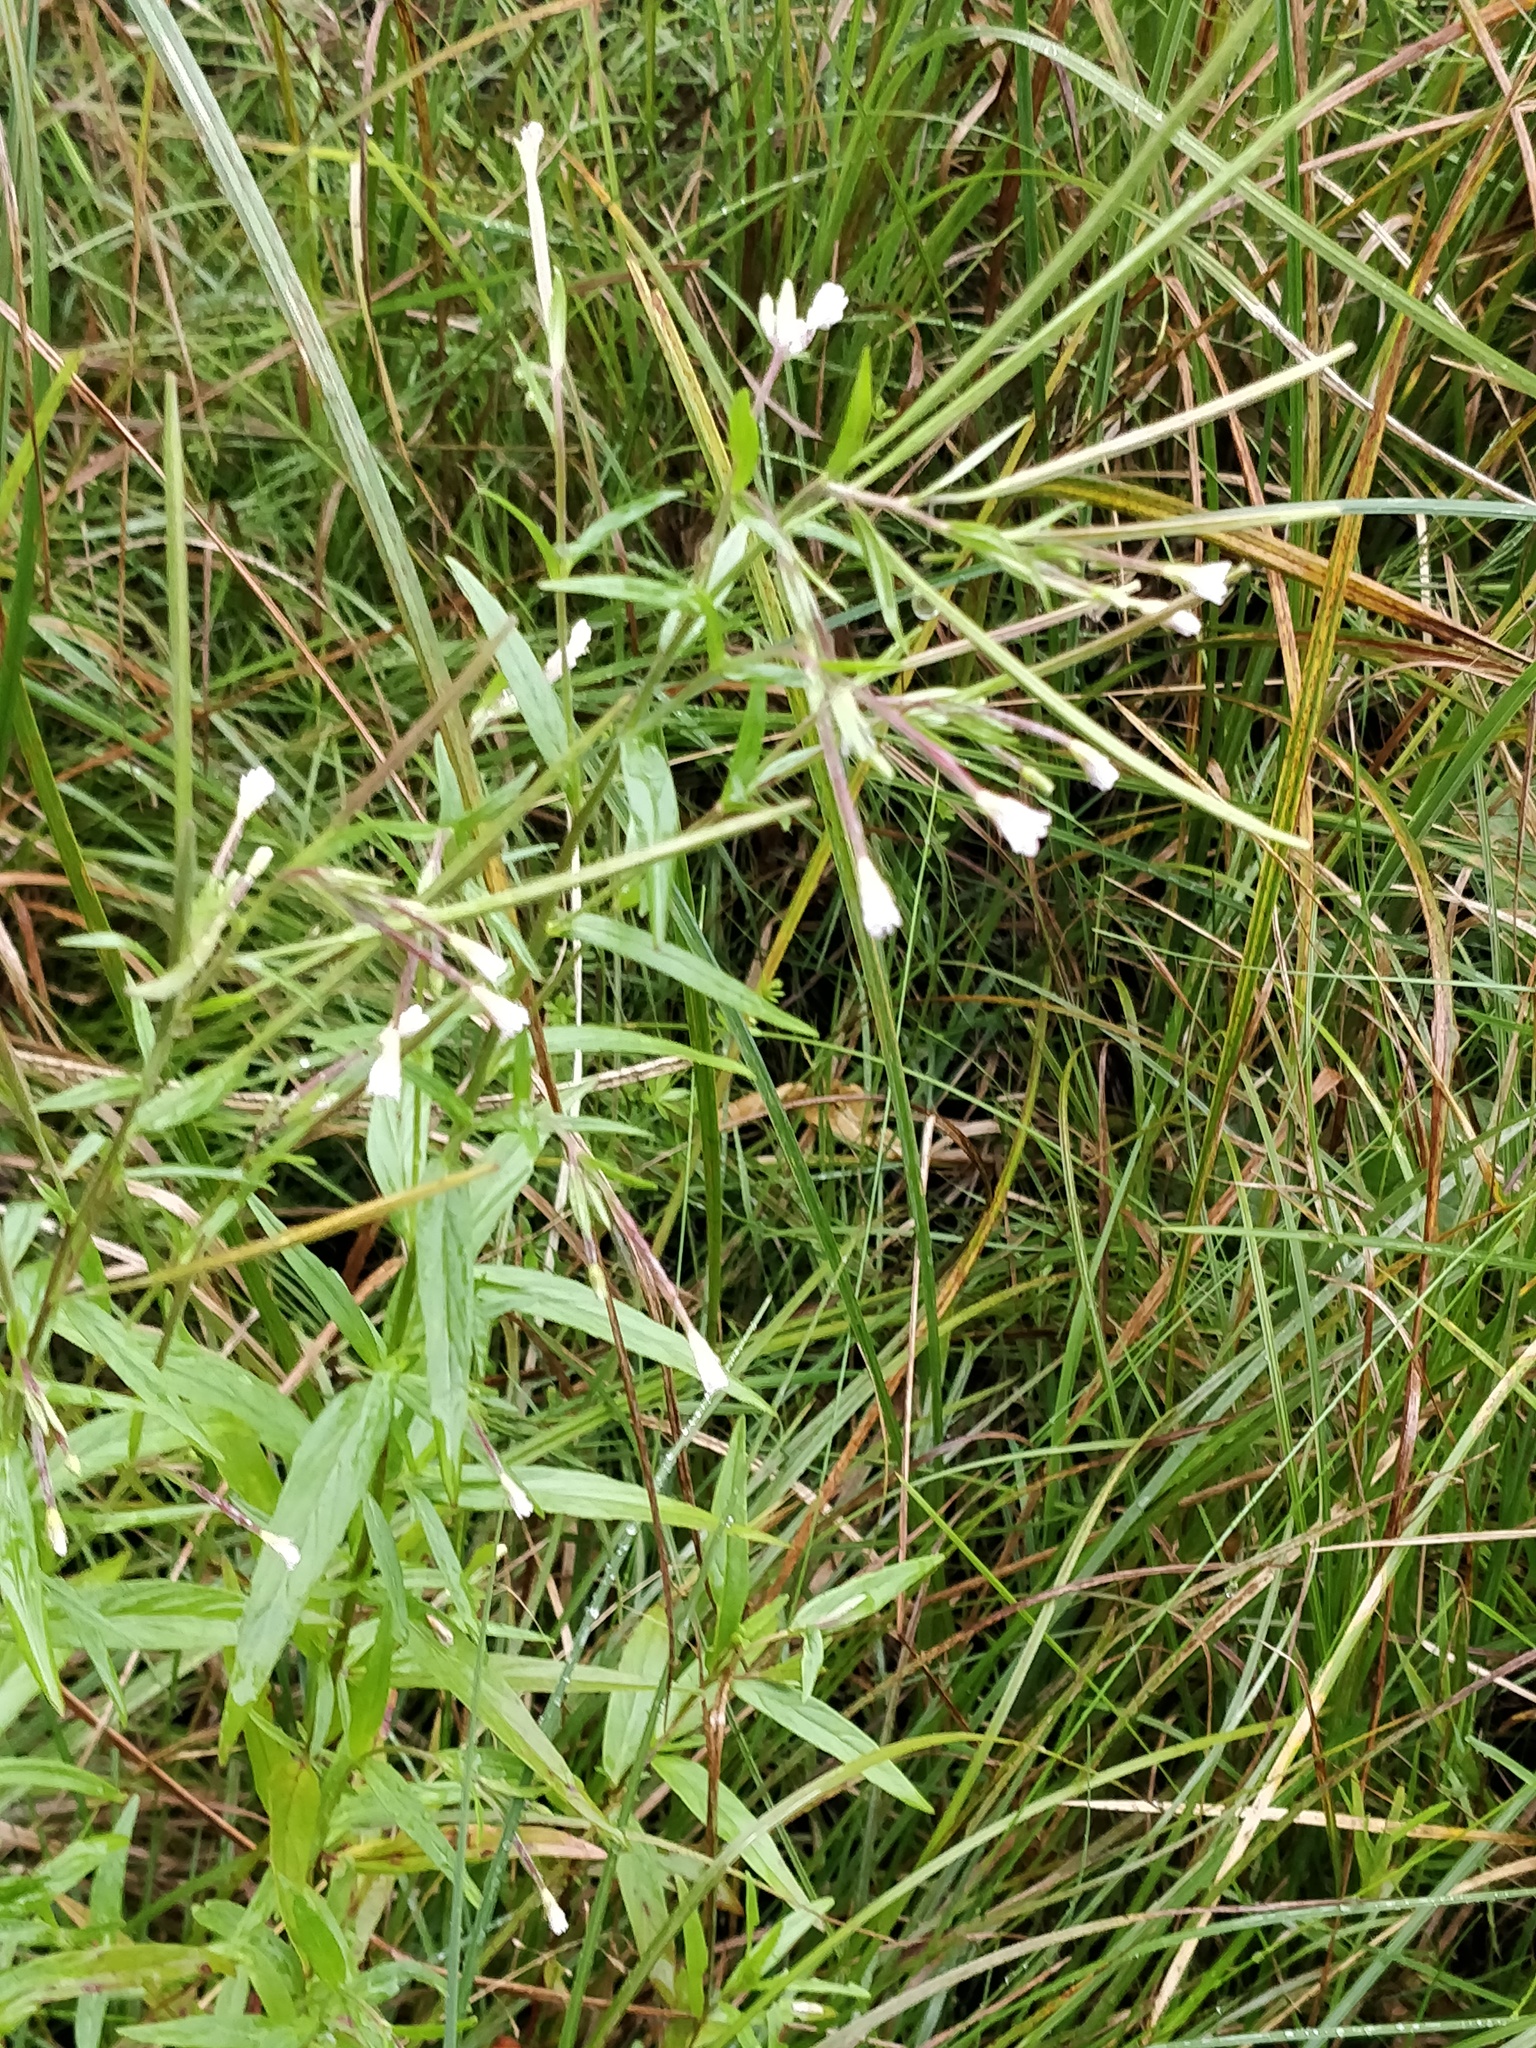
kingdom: Plantae
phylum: Tracheophyta
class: Magnoliopsida
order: Myrtales
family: Onagraceae
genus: Epilobium
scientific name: Epilobium palustre
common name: Marsh willowherb
